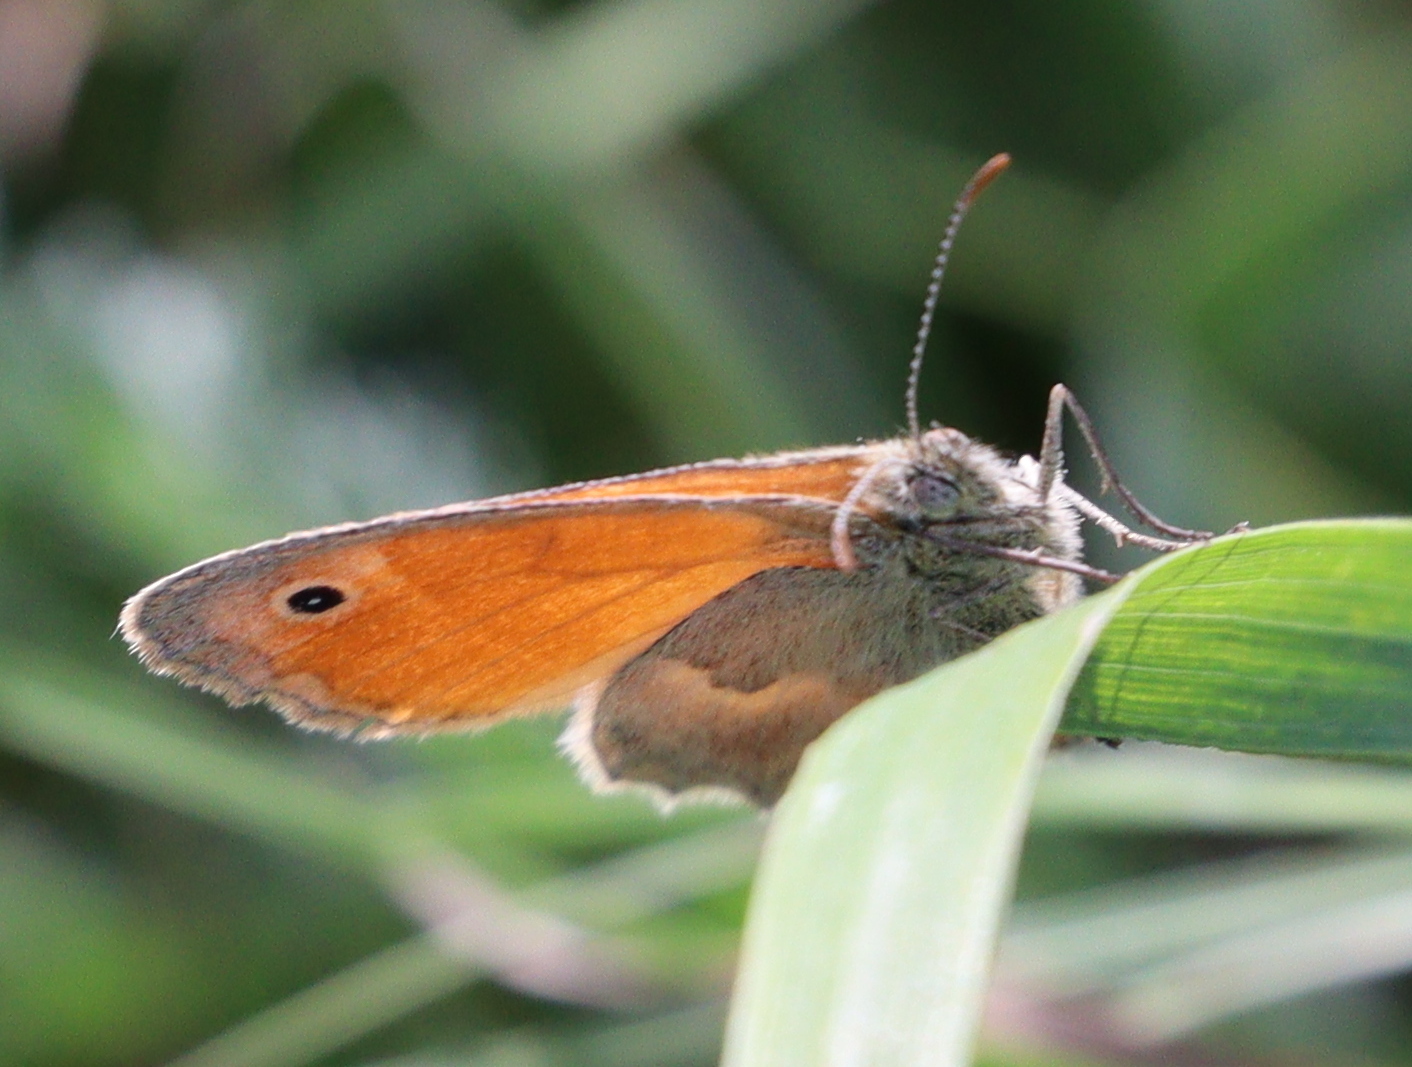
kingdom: Animalia
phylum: Arthropoda
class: Insecta
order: Lepidoptera
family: Nymphalidae
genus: Coenonympha
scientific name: Coenonympha pamphilus
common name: Small heath
